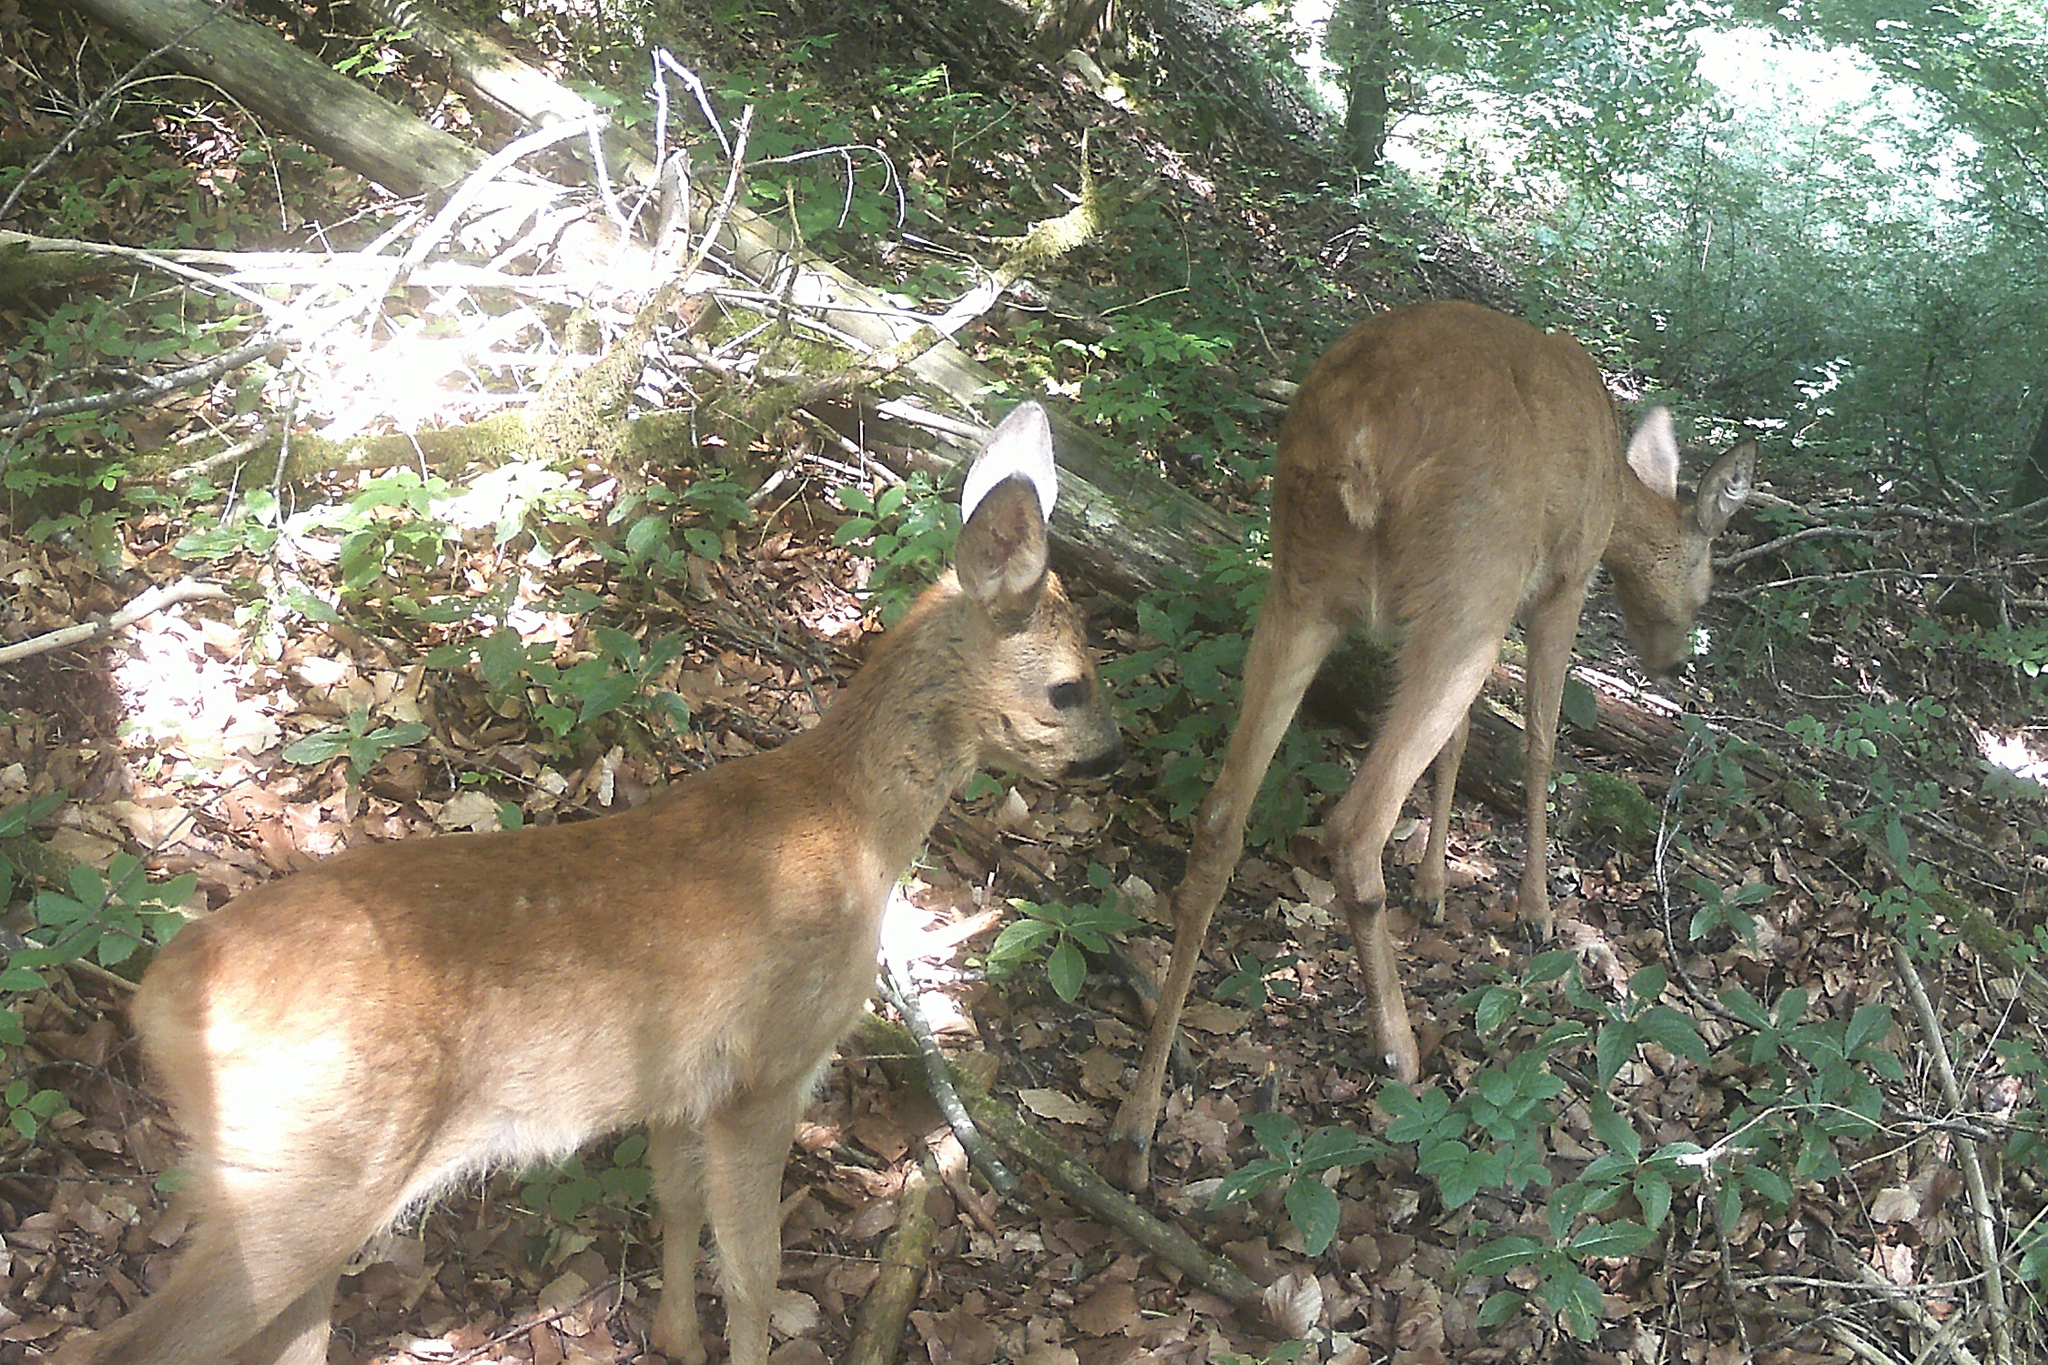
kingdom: Animalia
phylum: Chordata
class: Mammalia
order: Artiodactyla
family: Cervidae
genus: Capreolus
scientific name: Capreolus capreolus
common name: Western roe deer
